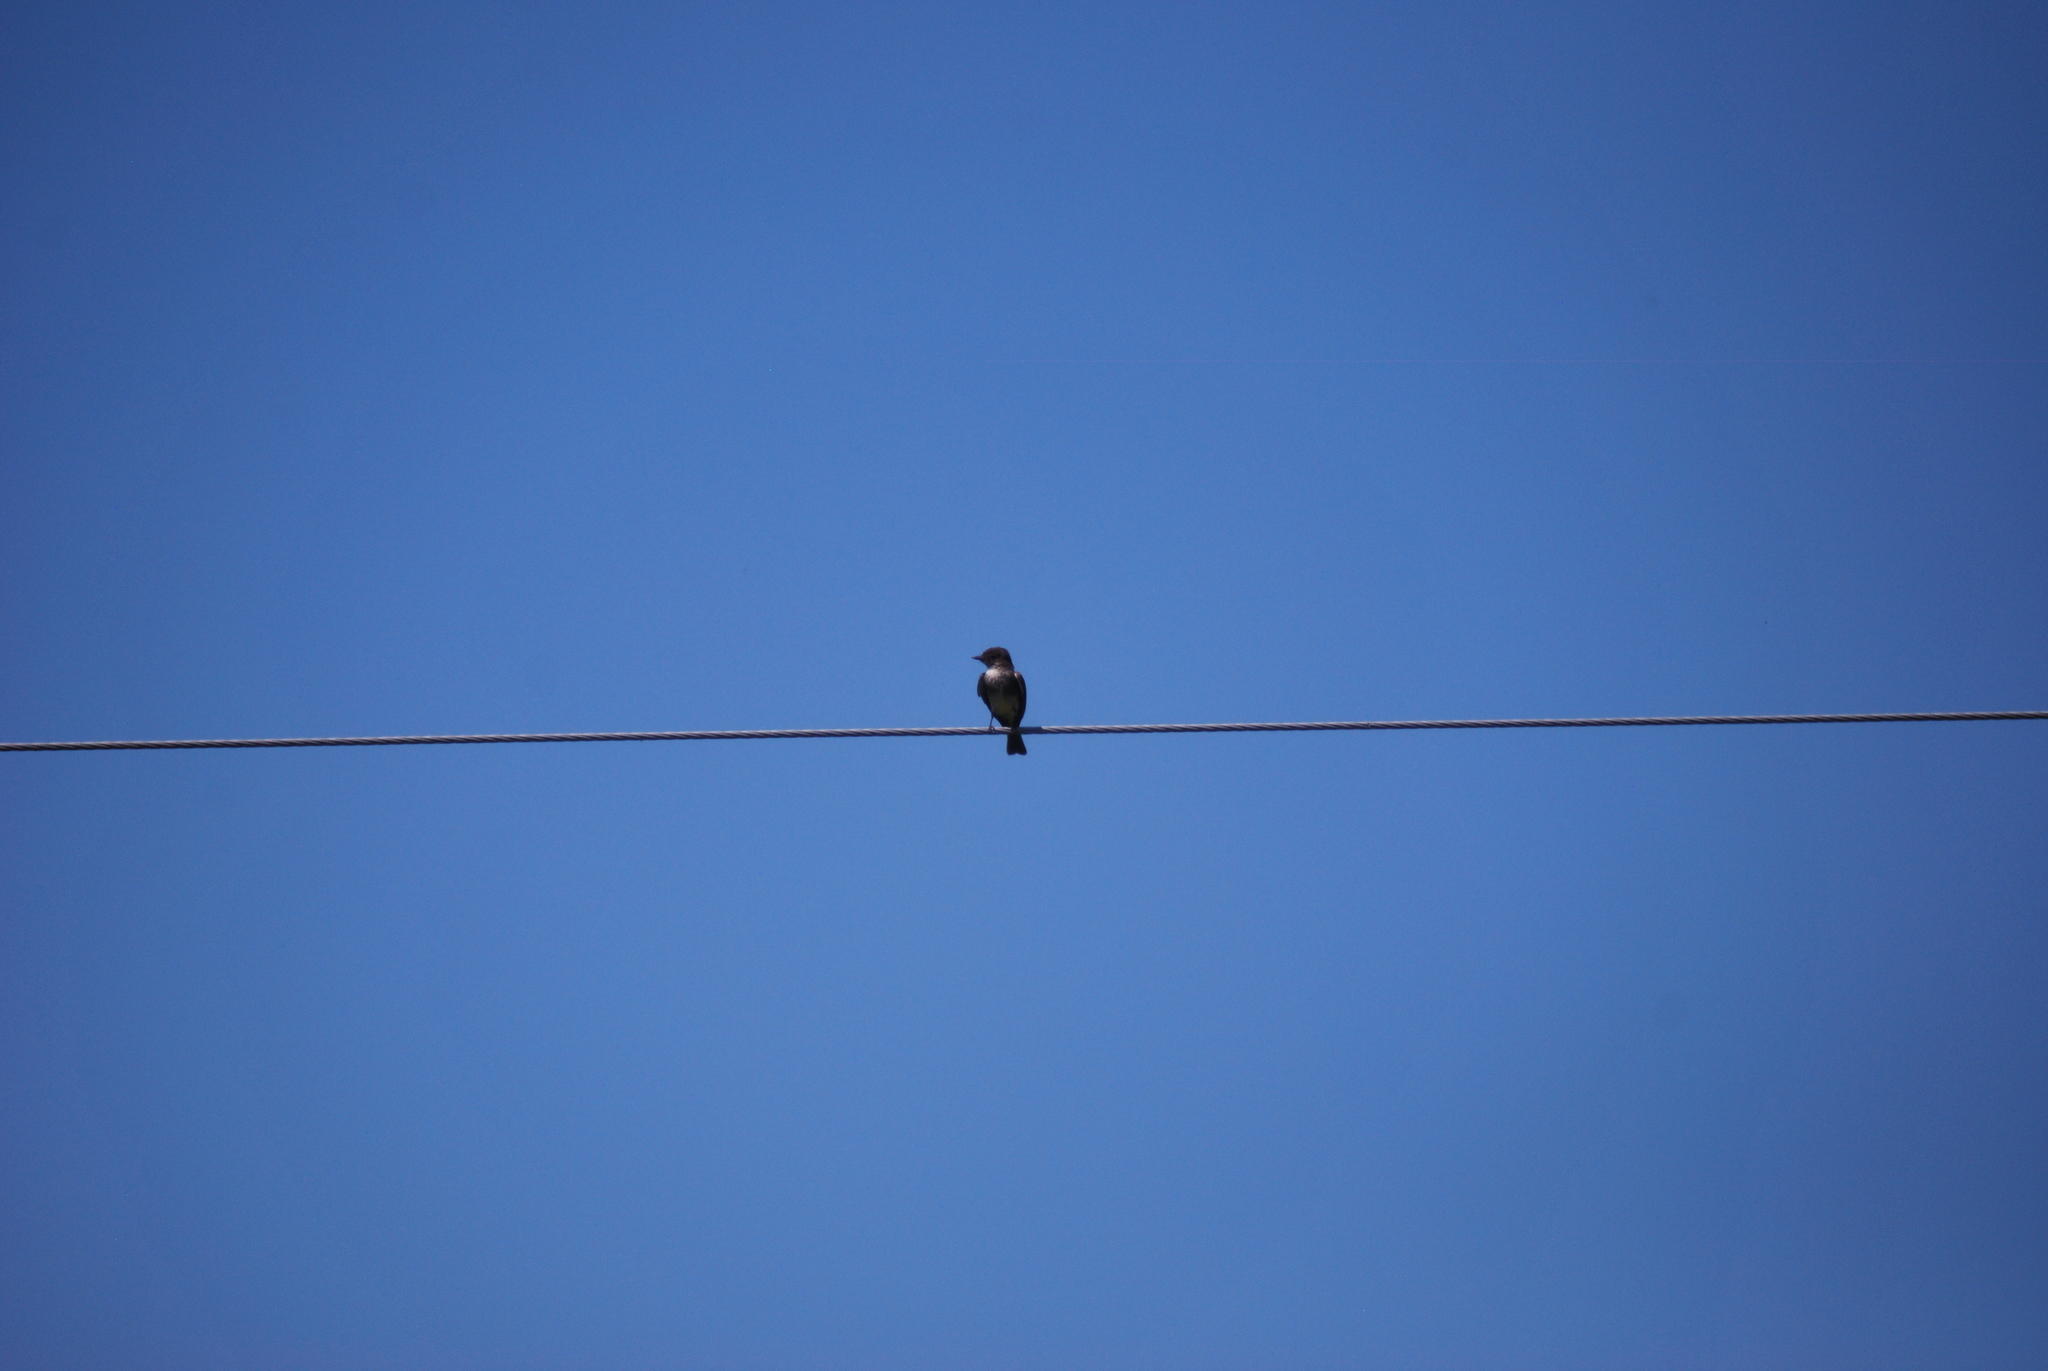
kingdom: Animalia
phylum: Chordata
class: Aves
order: Passeriformes
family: Tyrannidae
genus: Sayornis
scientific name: Sayornis phoebe
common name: Eastern phoebe
